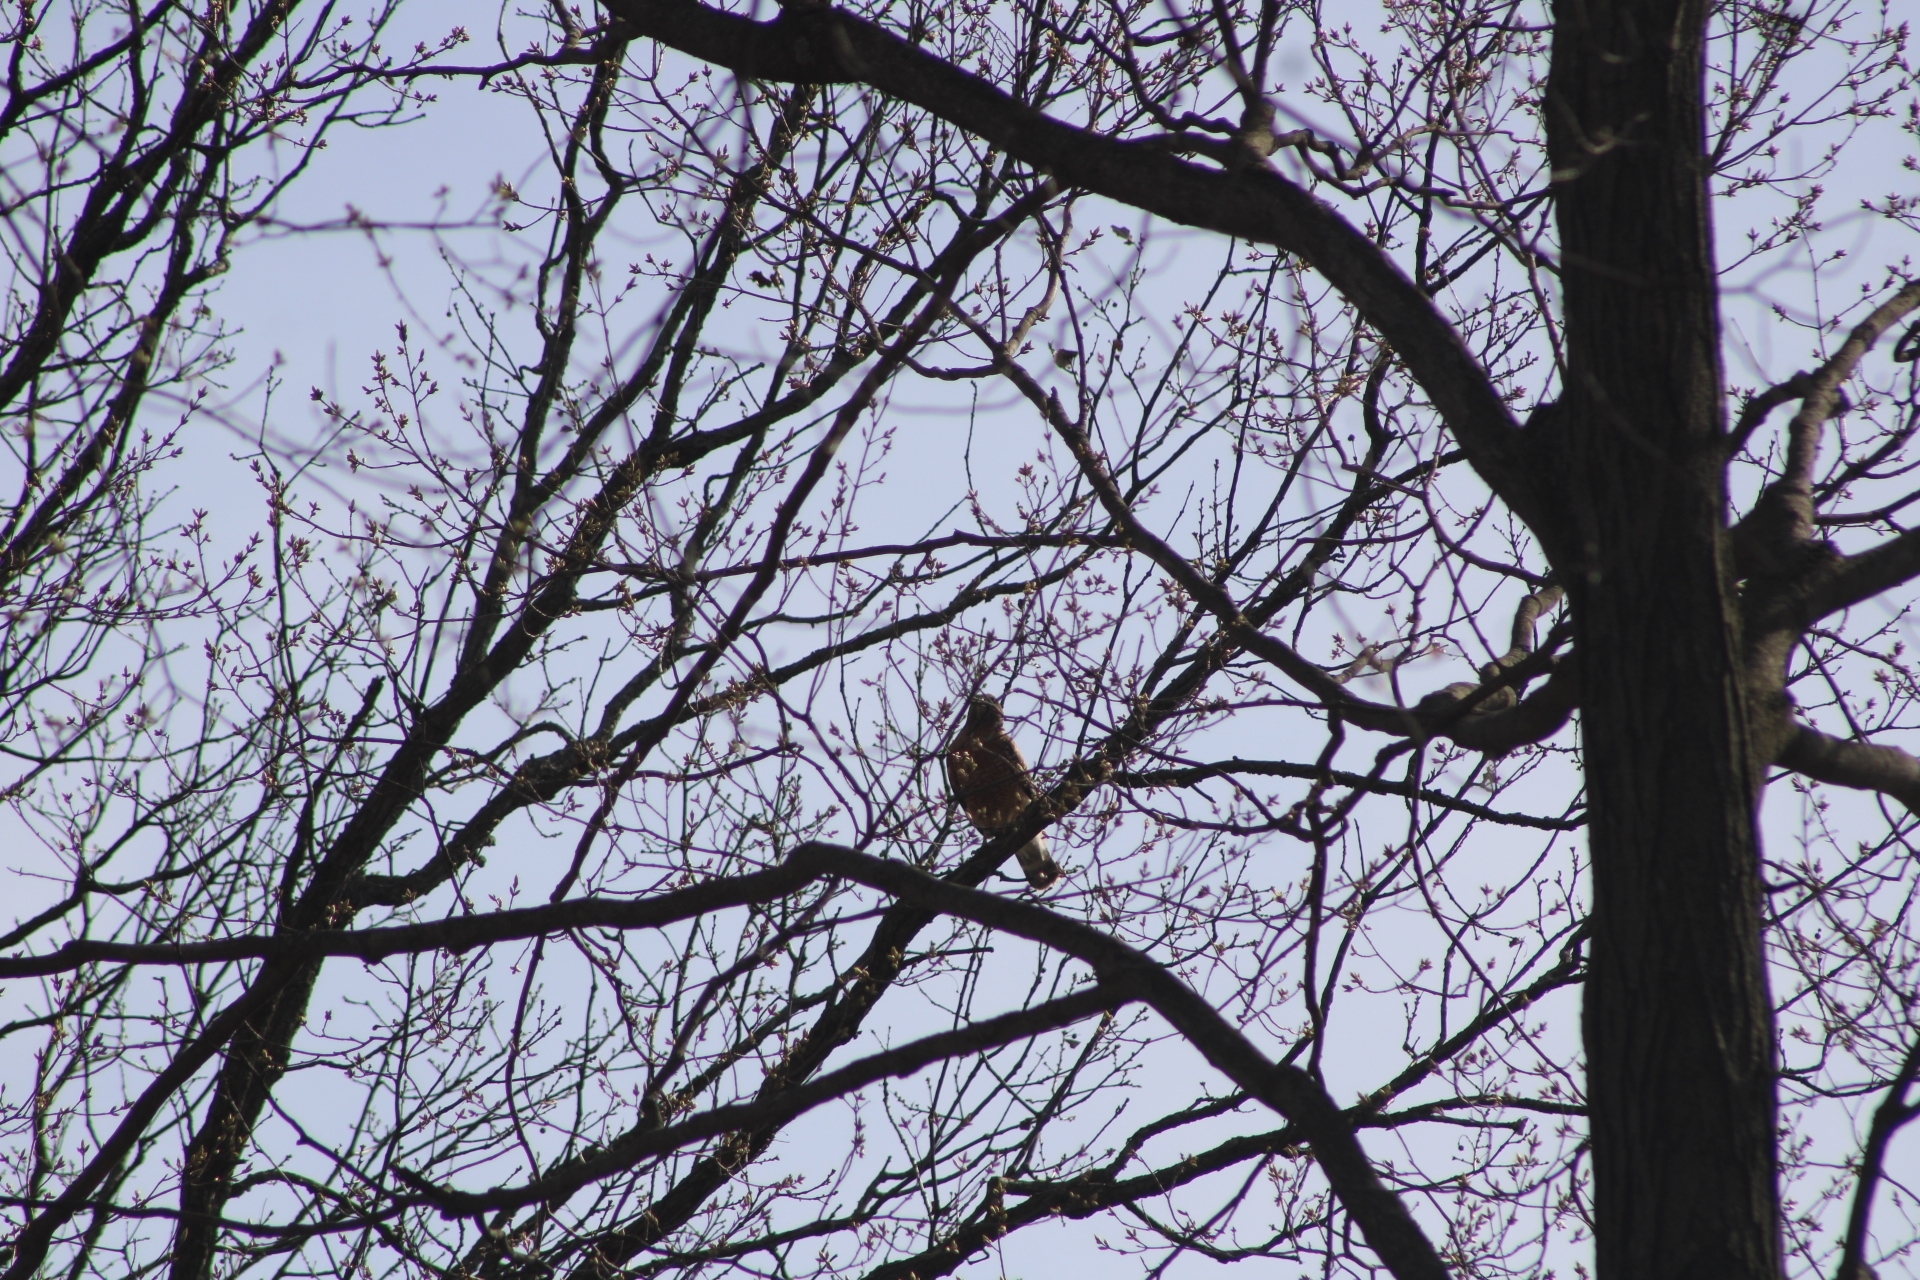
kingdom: Animalia
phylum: Chordata
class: Aves
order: Accipitriformes
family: Accipitridae
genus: Buteo
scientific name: Buteo lineatus
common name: Red-shouldered hawk
